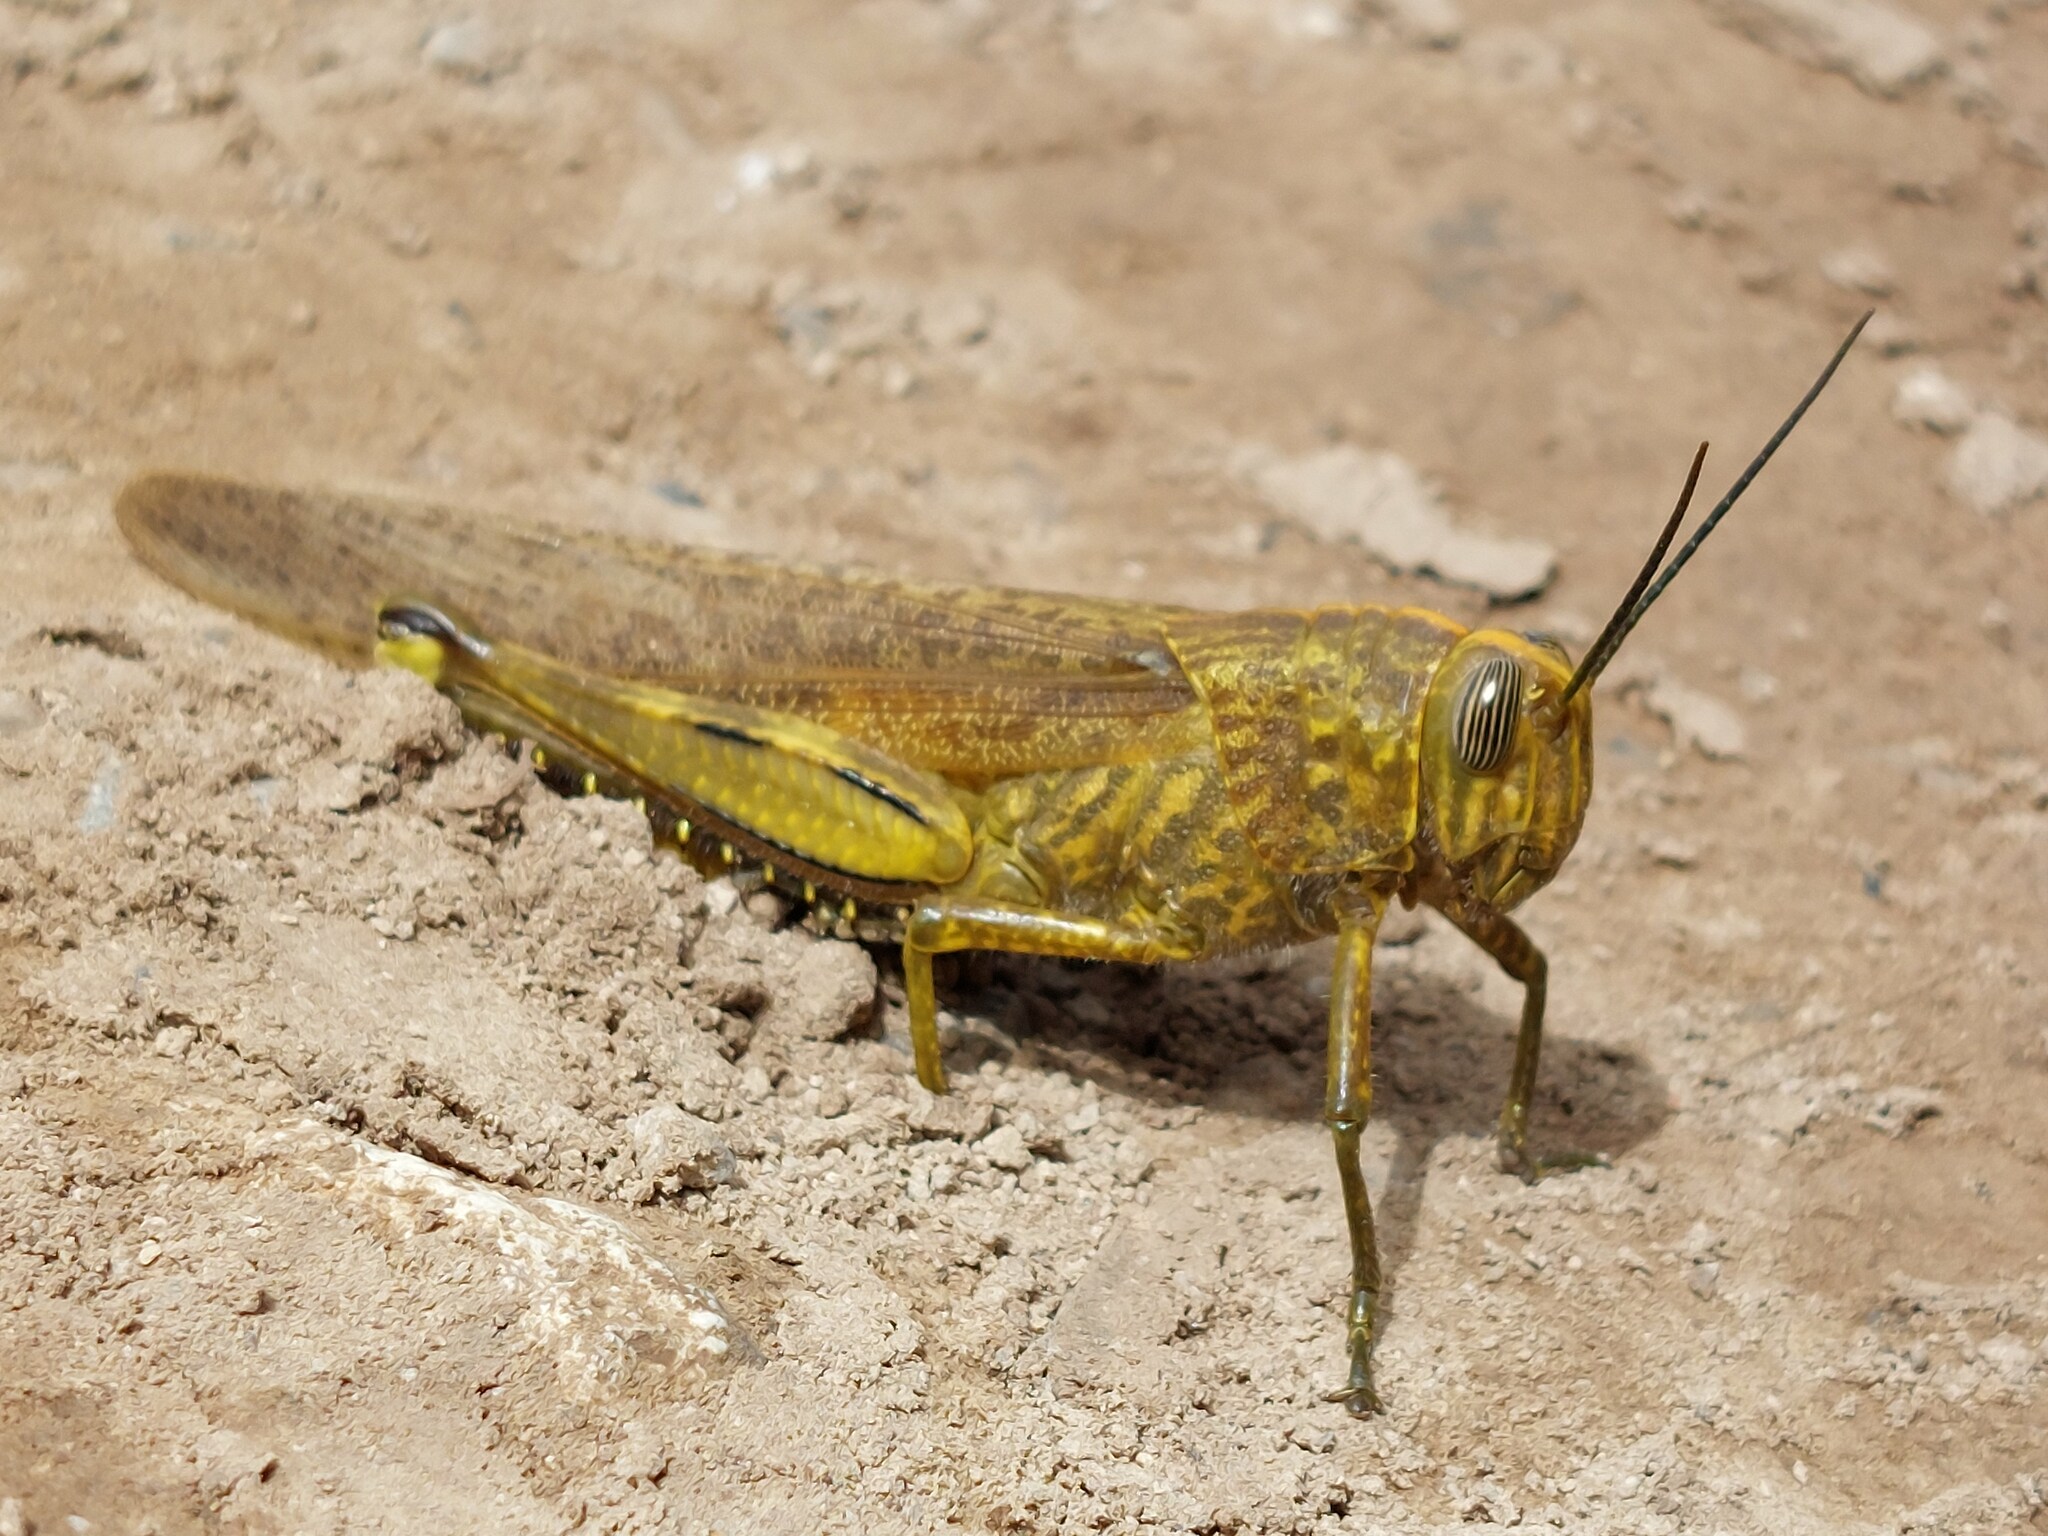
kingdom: Animalia
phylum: Arthropoda
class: Insecta
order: Orthoptera
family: Acrididae
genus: Anacridium
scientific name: Anacridium aegyptium
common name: Egyptian grasshopper
